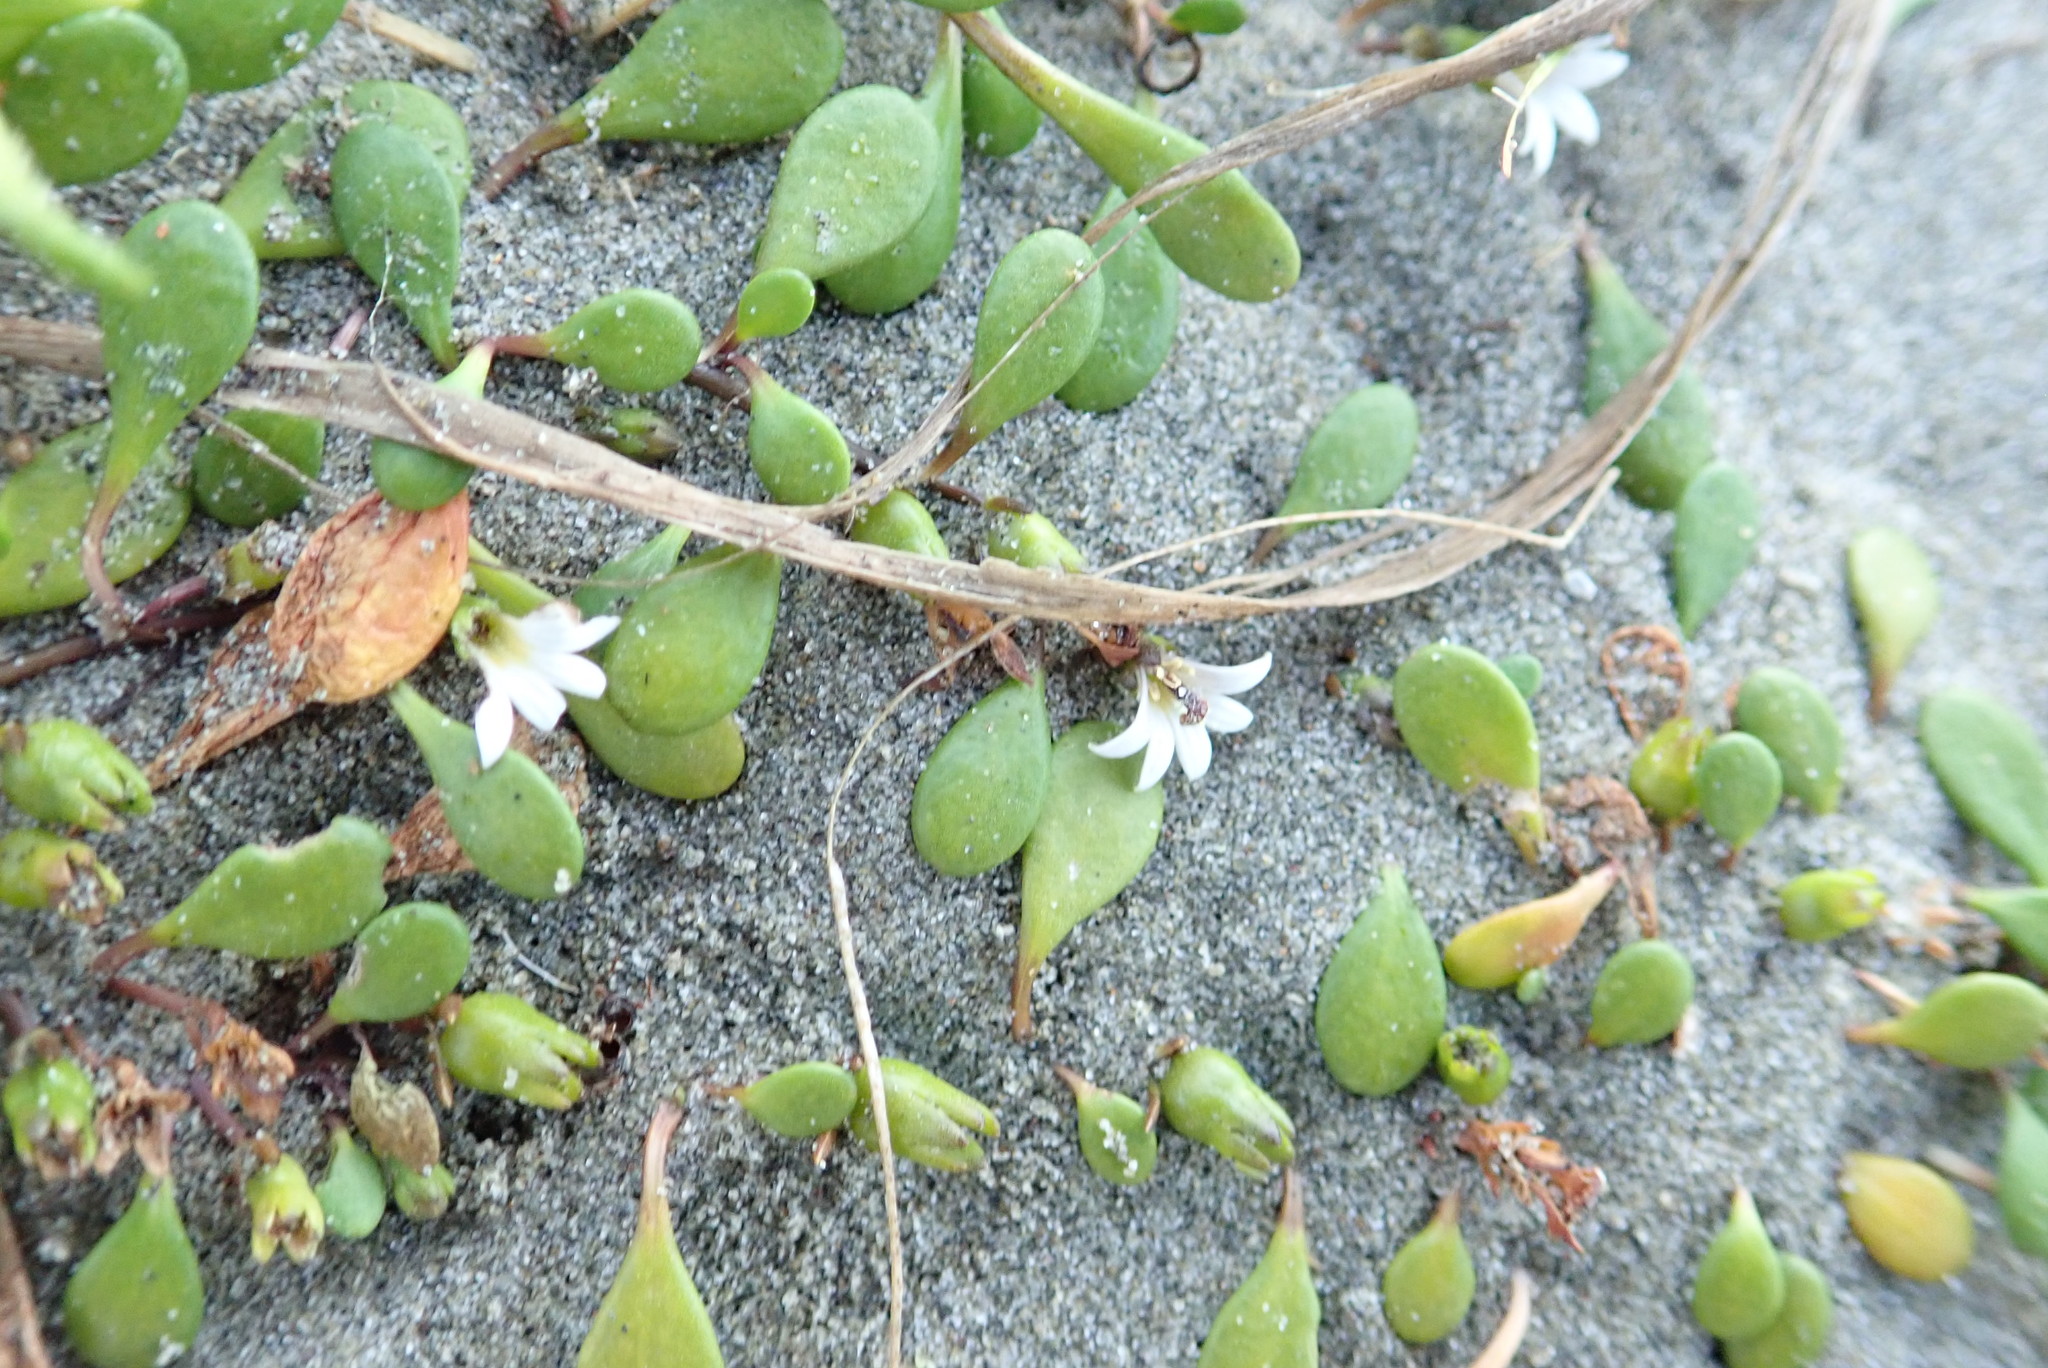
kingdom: Plantae
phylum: Tracheophyta
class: Magnoliopsida
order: Asterales
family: Goodeniaceae
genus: Goodenia
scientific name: Goodenia radicans
